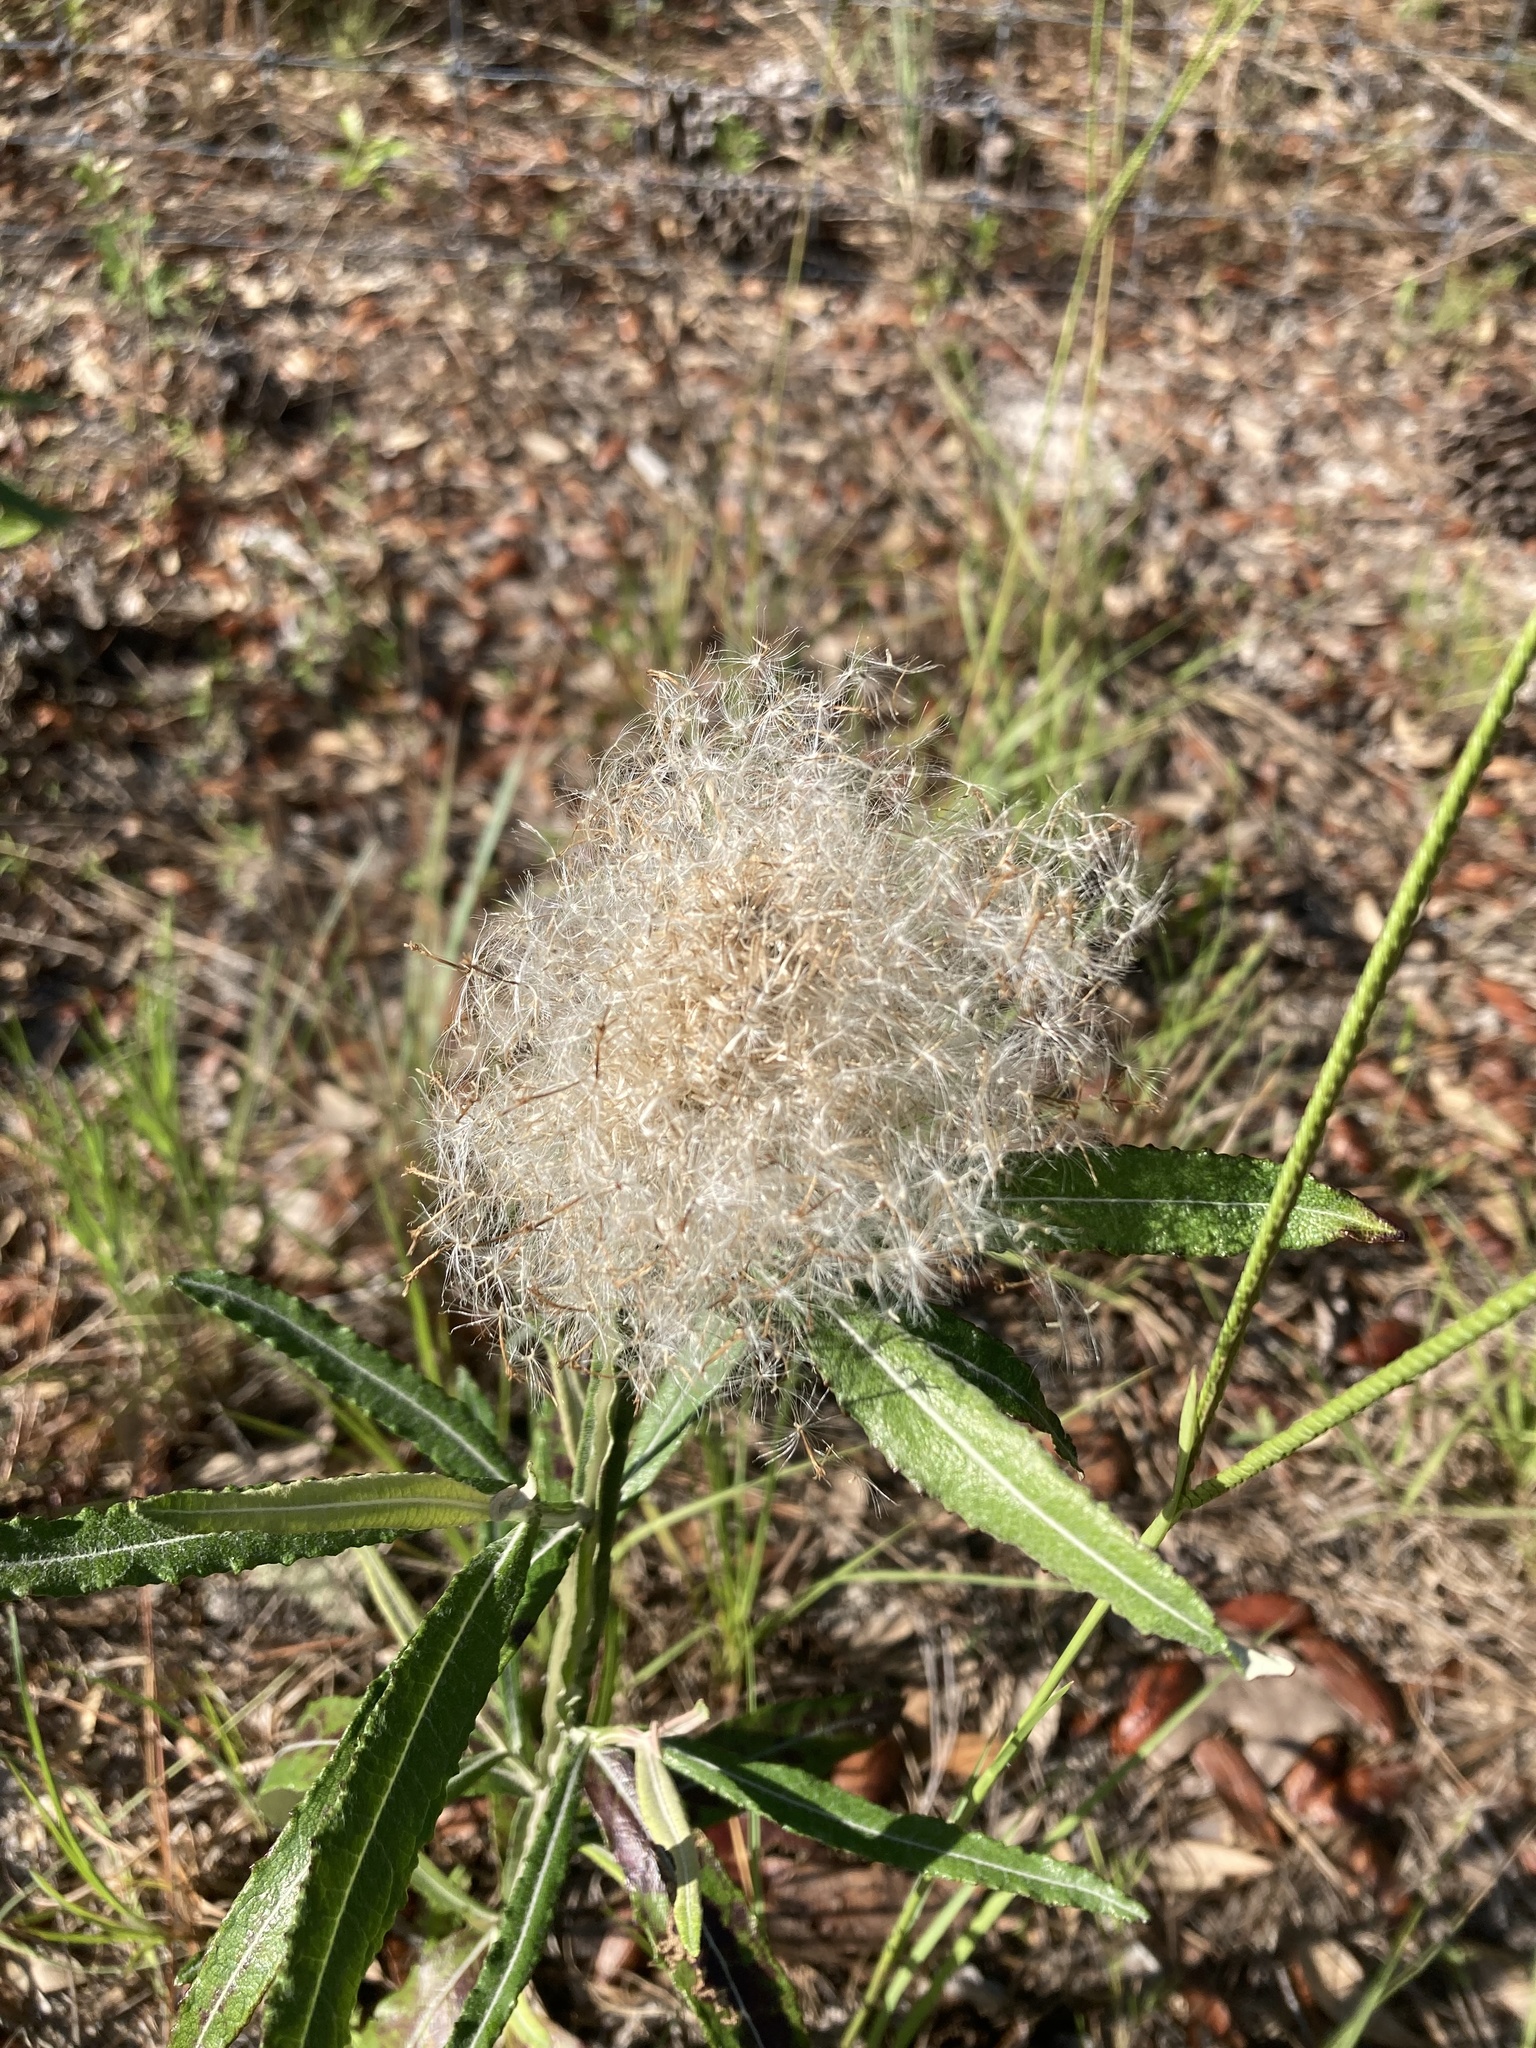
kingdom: Plantae
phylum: Tracheophyta
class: Magnoliopsida
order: Asterales
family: Asteraceae
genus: Pterocaulon
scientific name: Pterocaulon pycnostachyum
